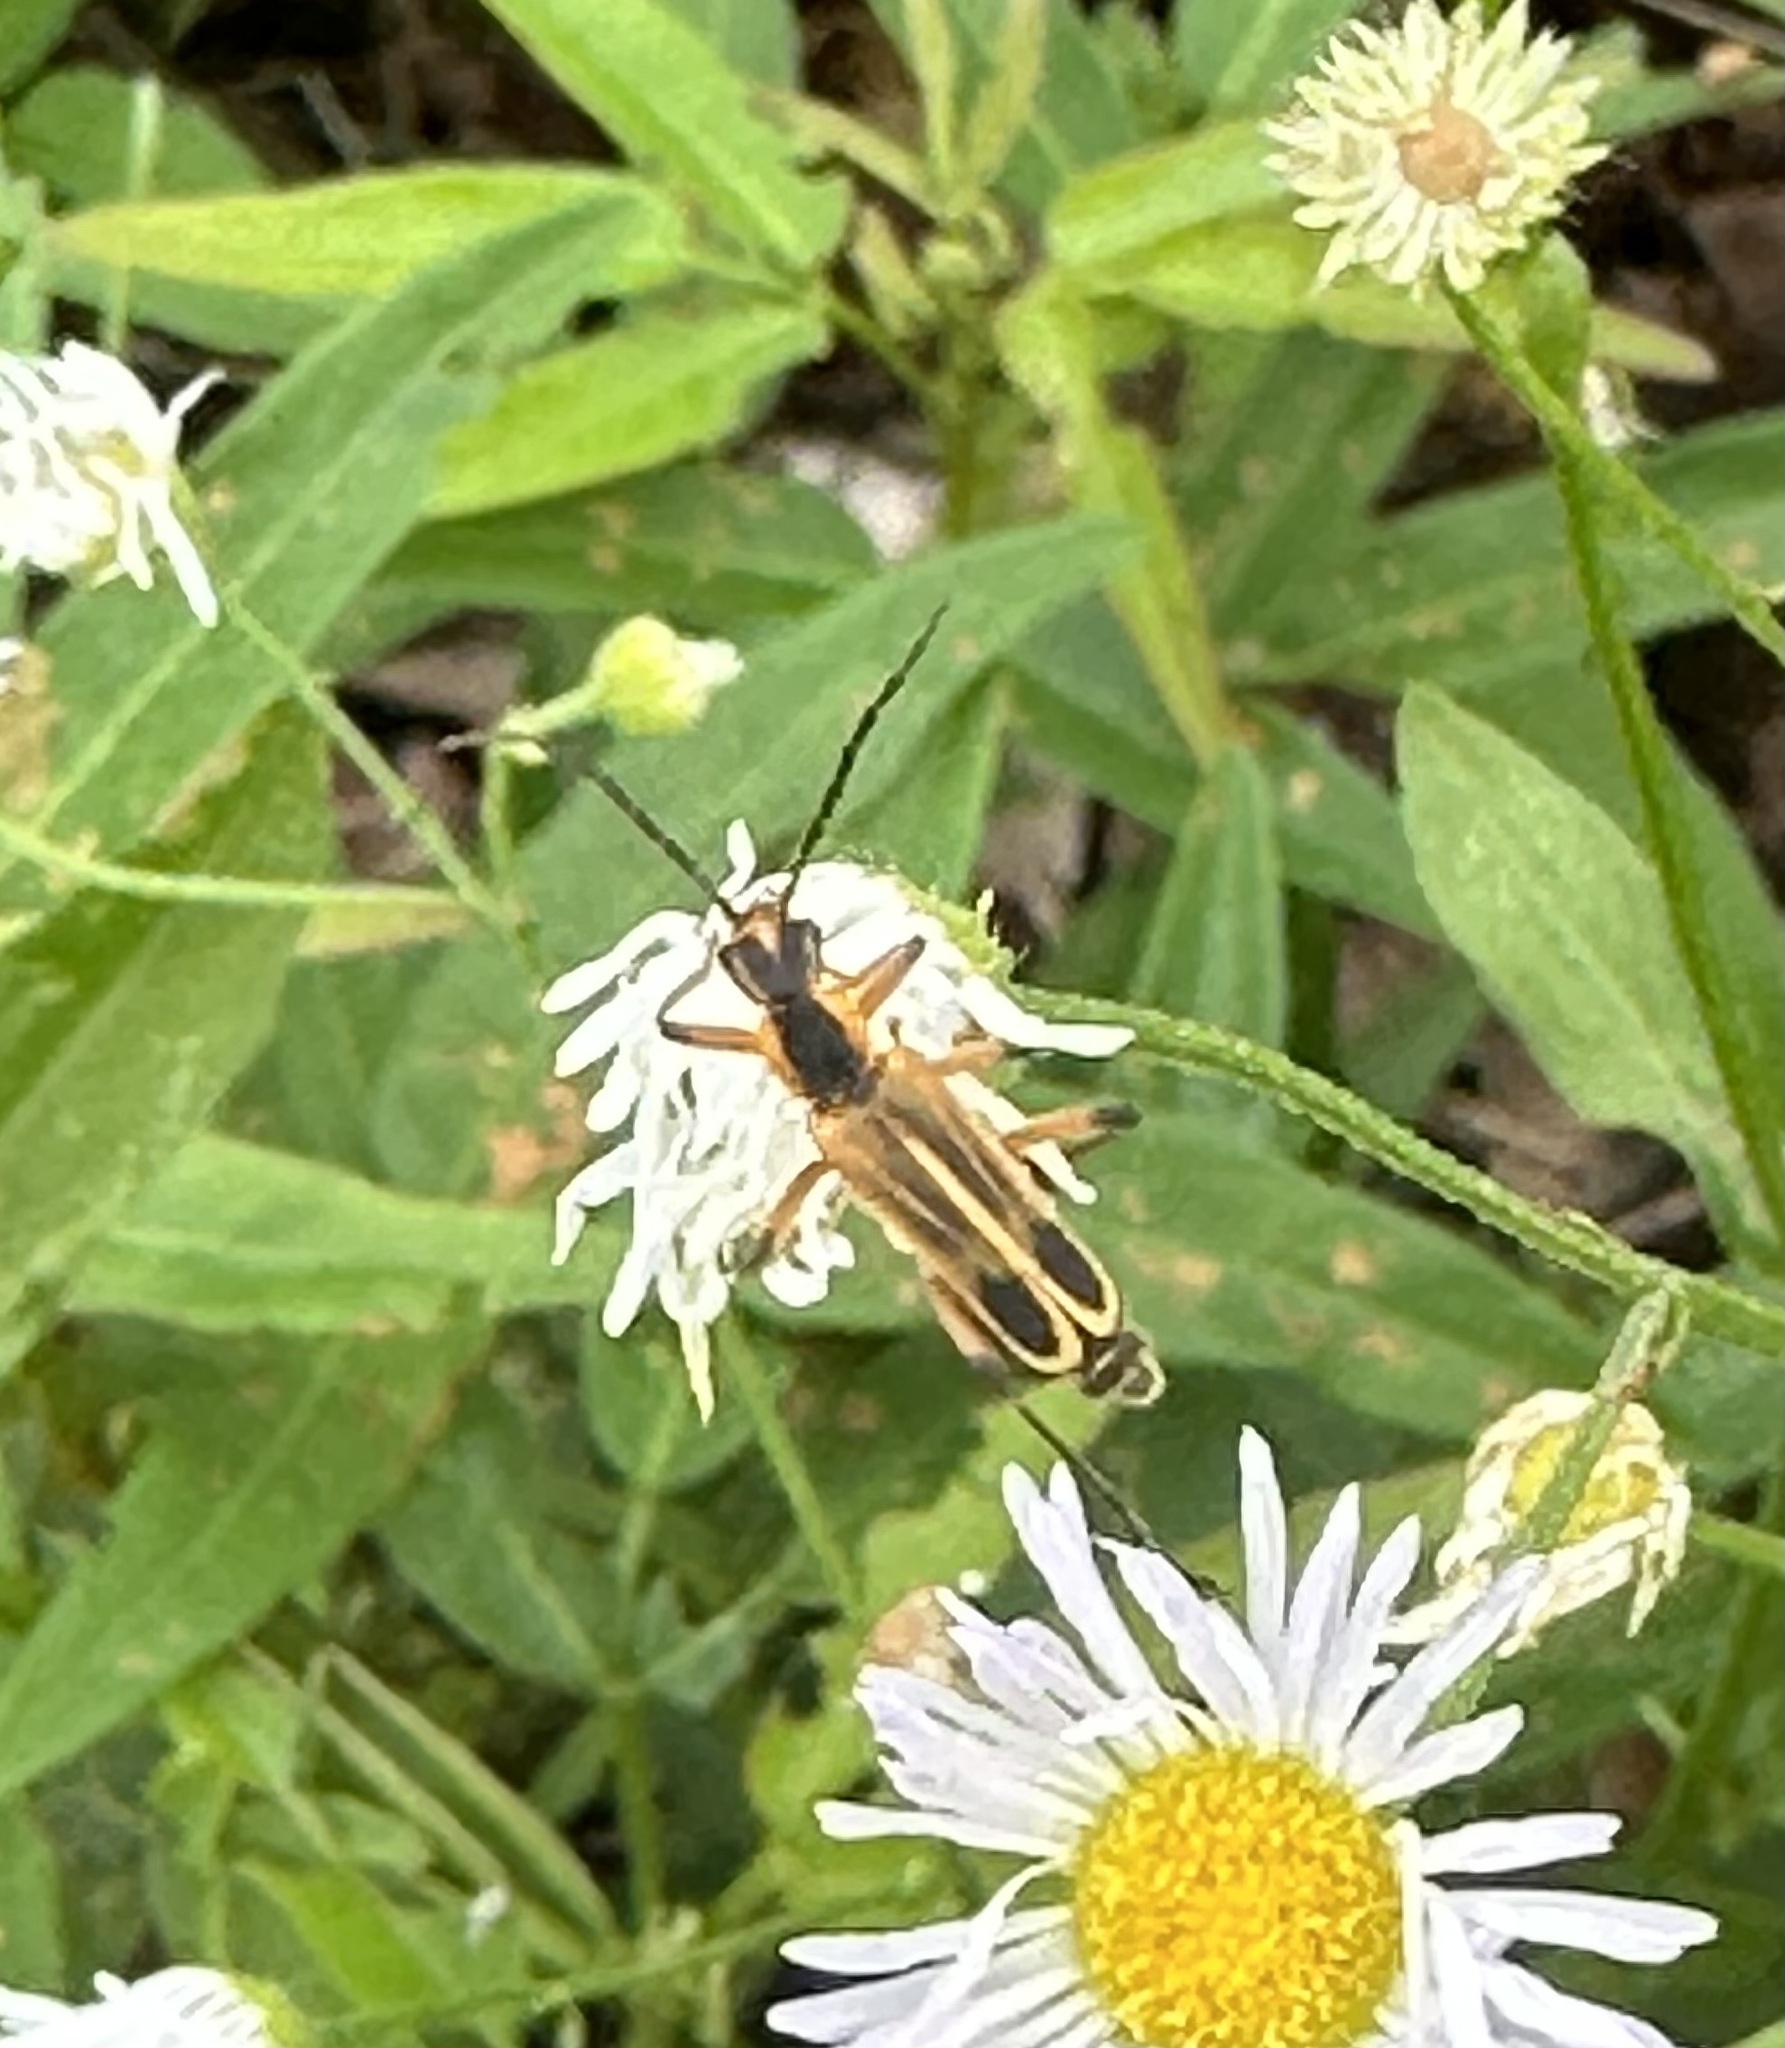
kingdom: Animalia
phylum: Arthropoda
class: Insecta
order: Coleoptera
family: Cantharidae
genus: Chauliognathus
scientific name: Chauliognathus marginatus
